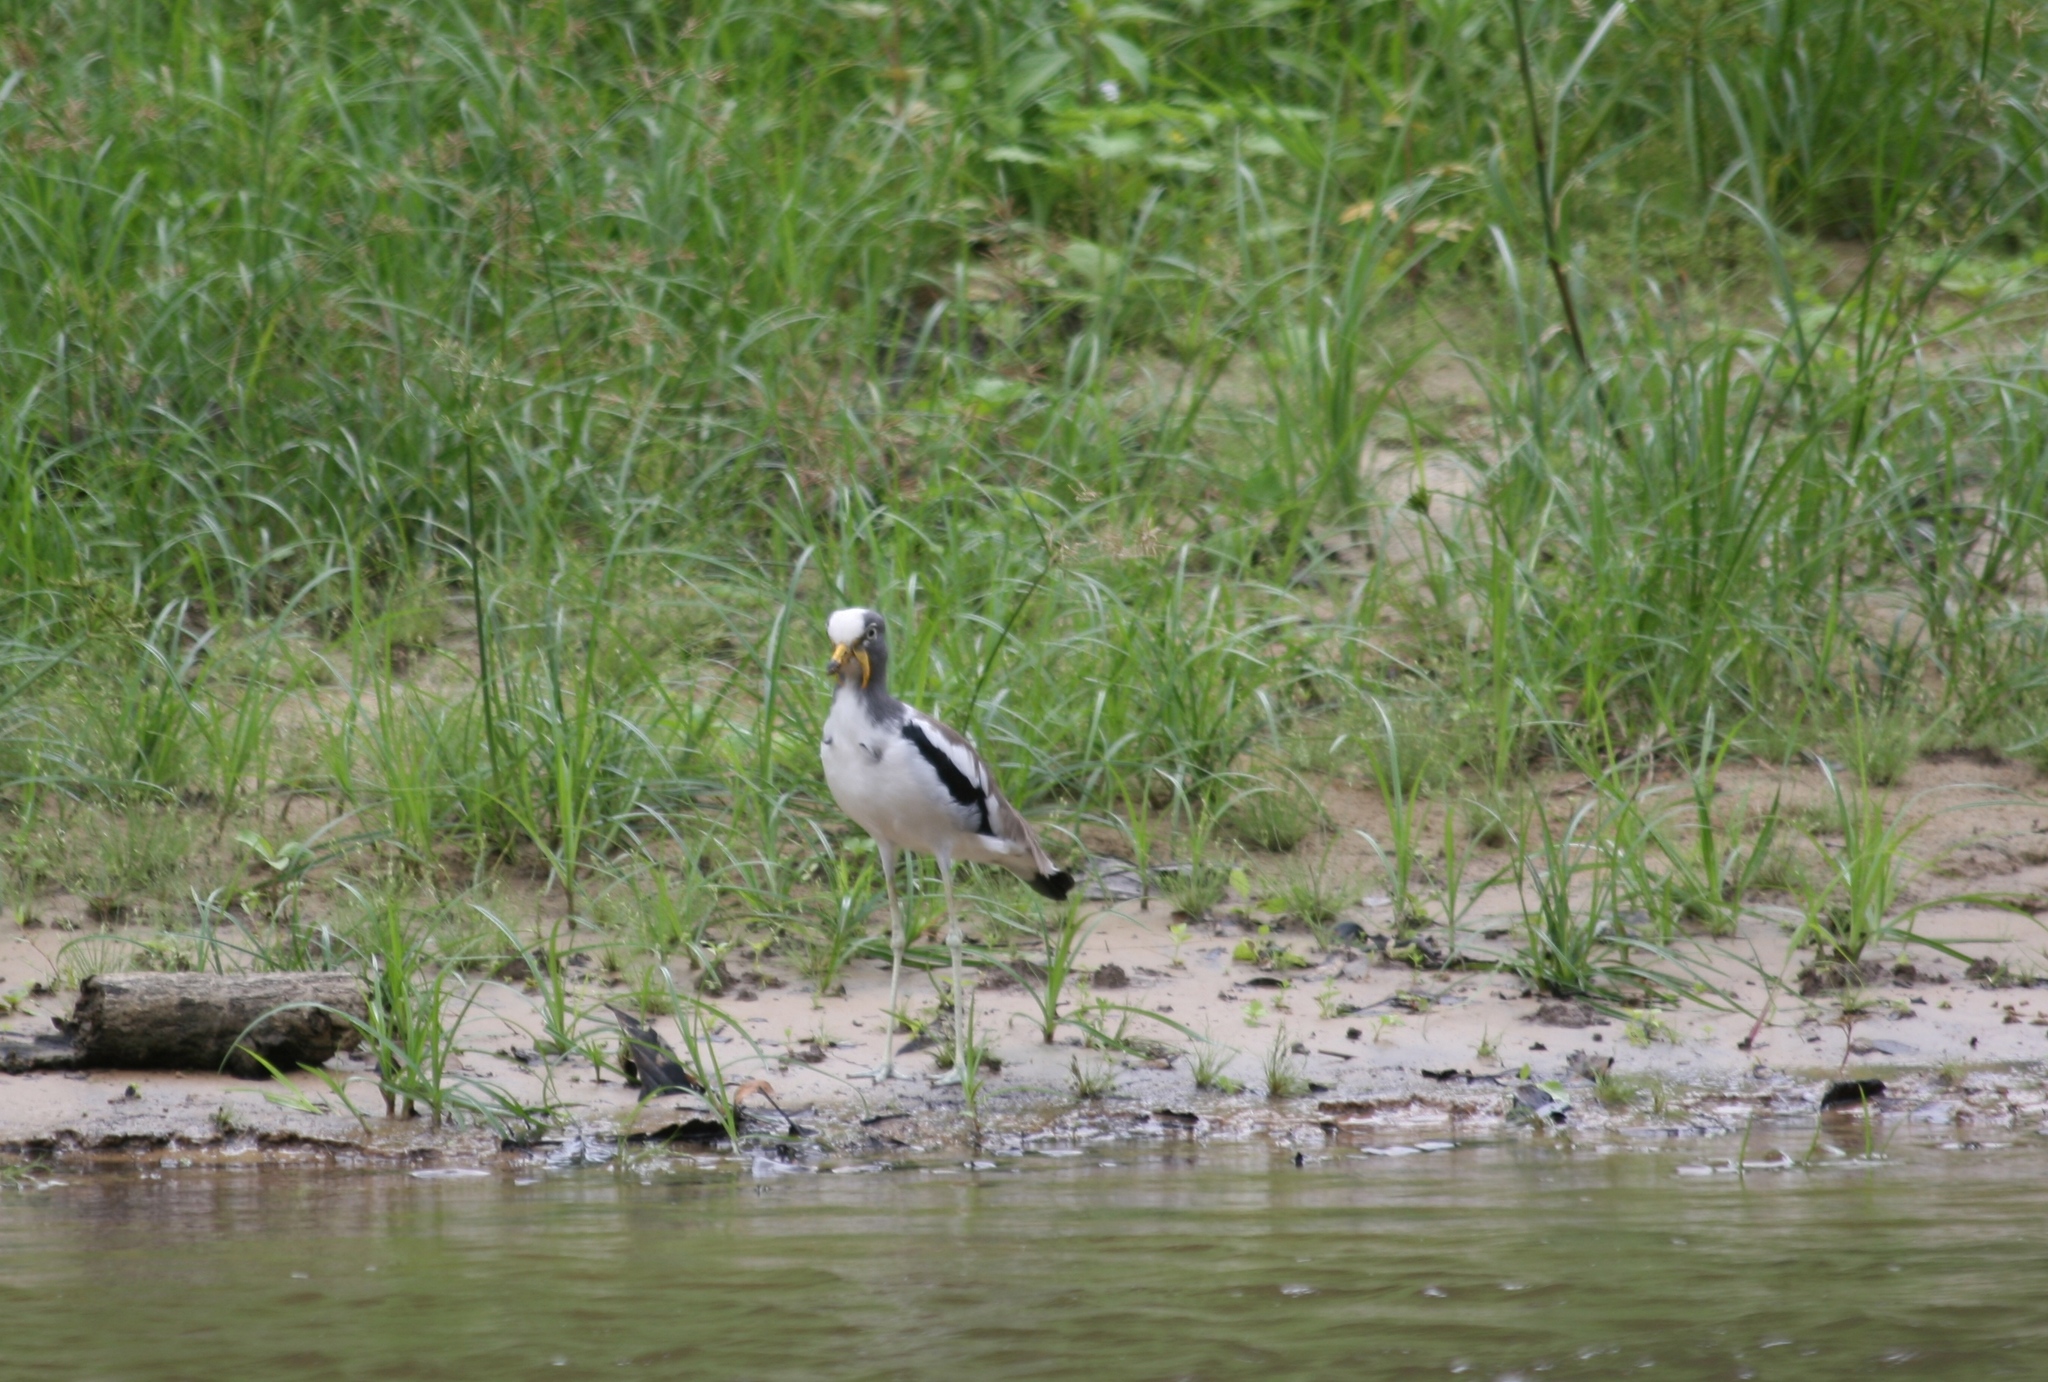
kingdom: Animalia
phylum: Chordata
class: Aves
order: Charadriiformes
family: Charadriidae
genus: Vanellus
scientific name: Vanellus albiceps
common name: White-crowned lapwing
